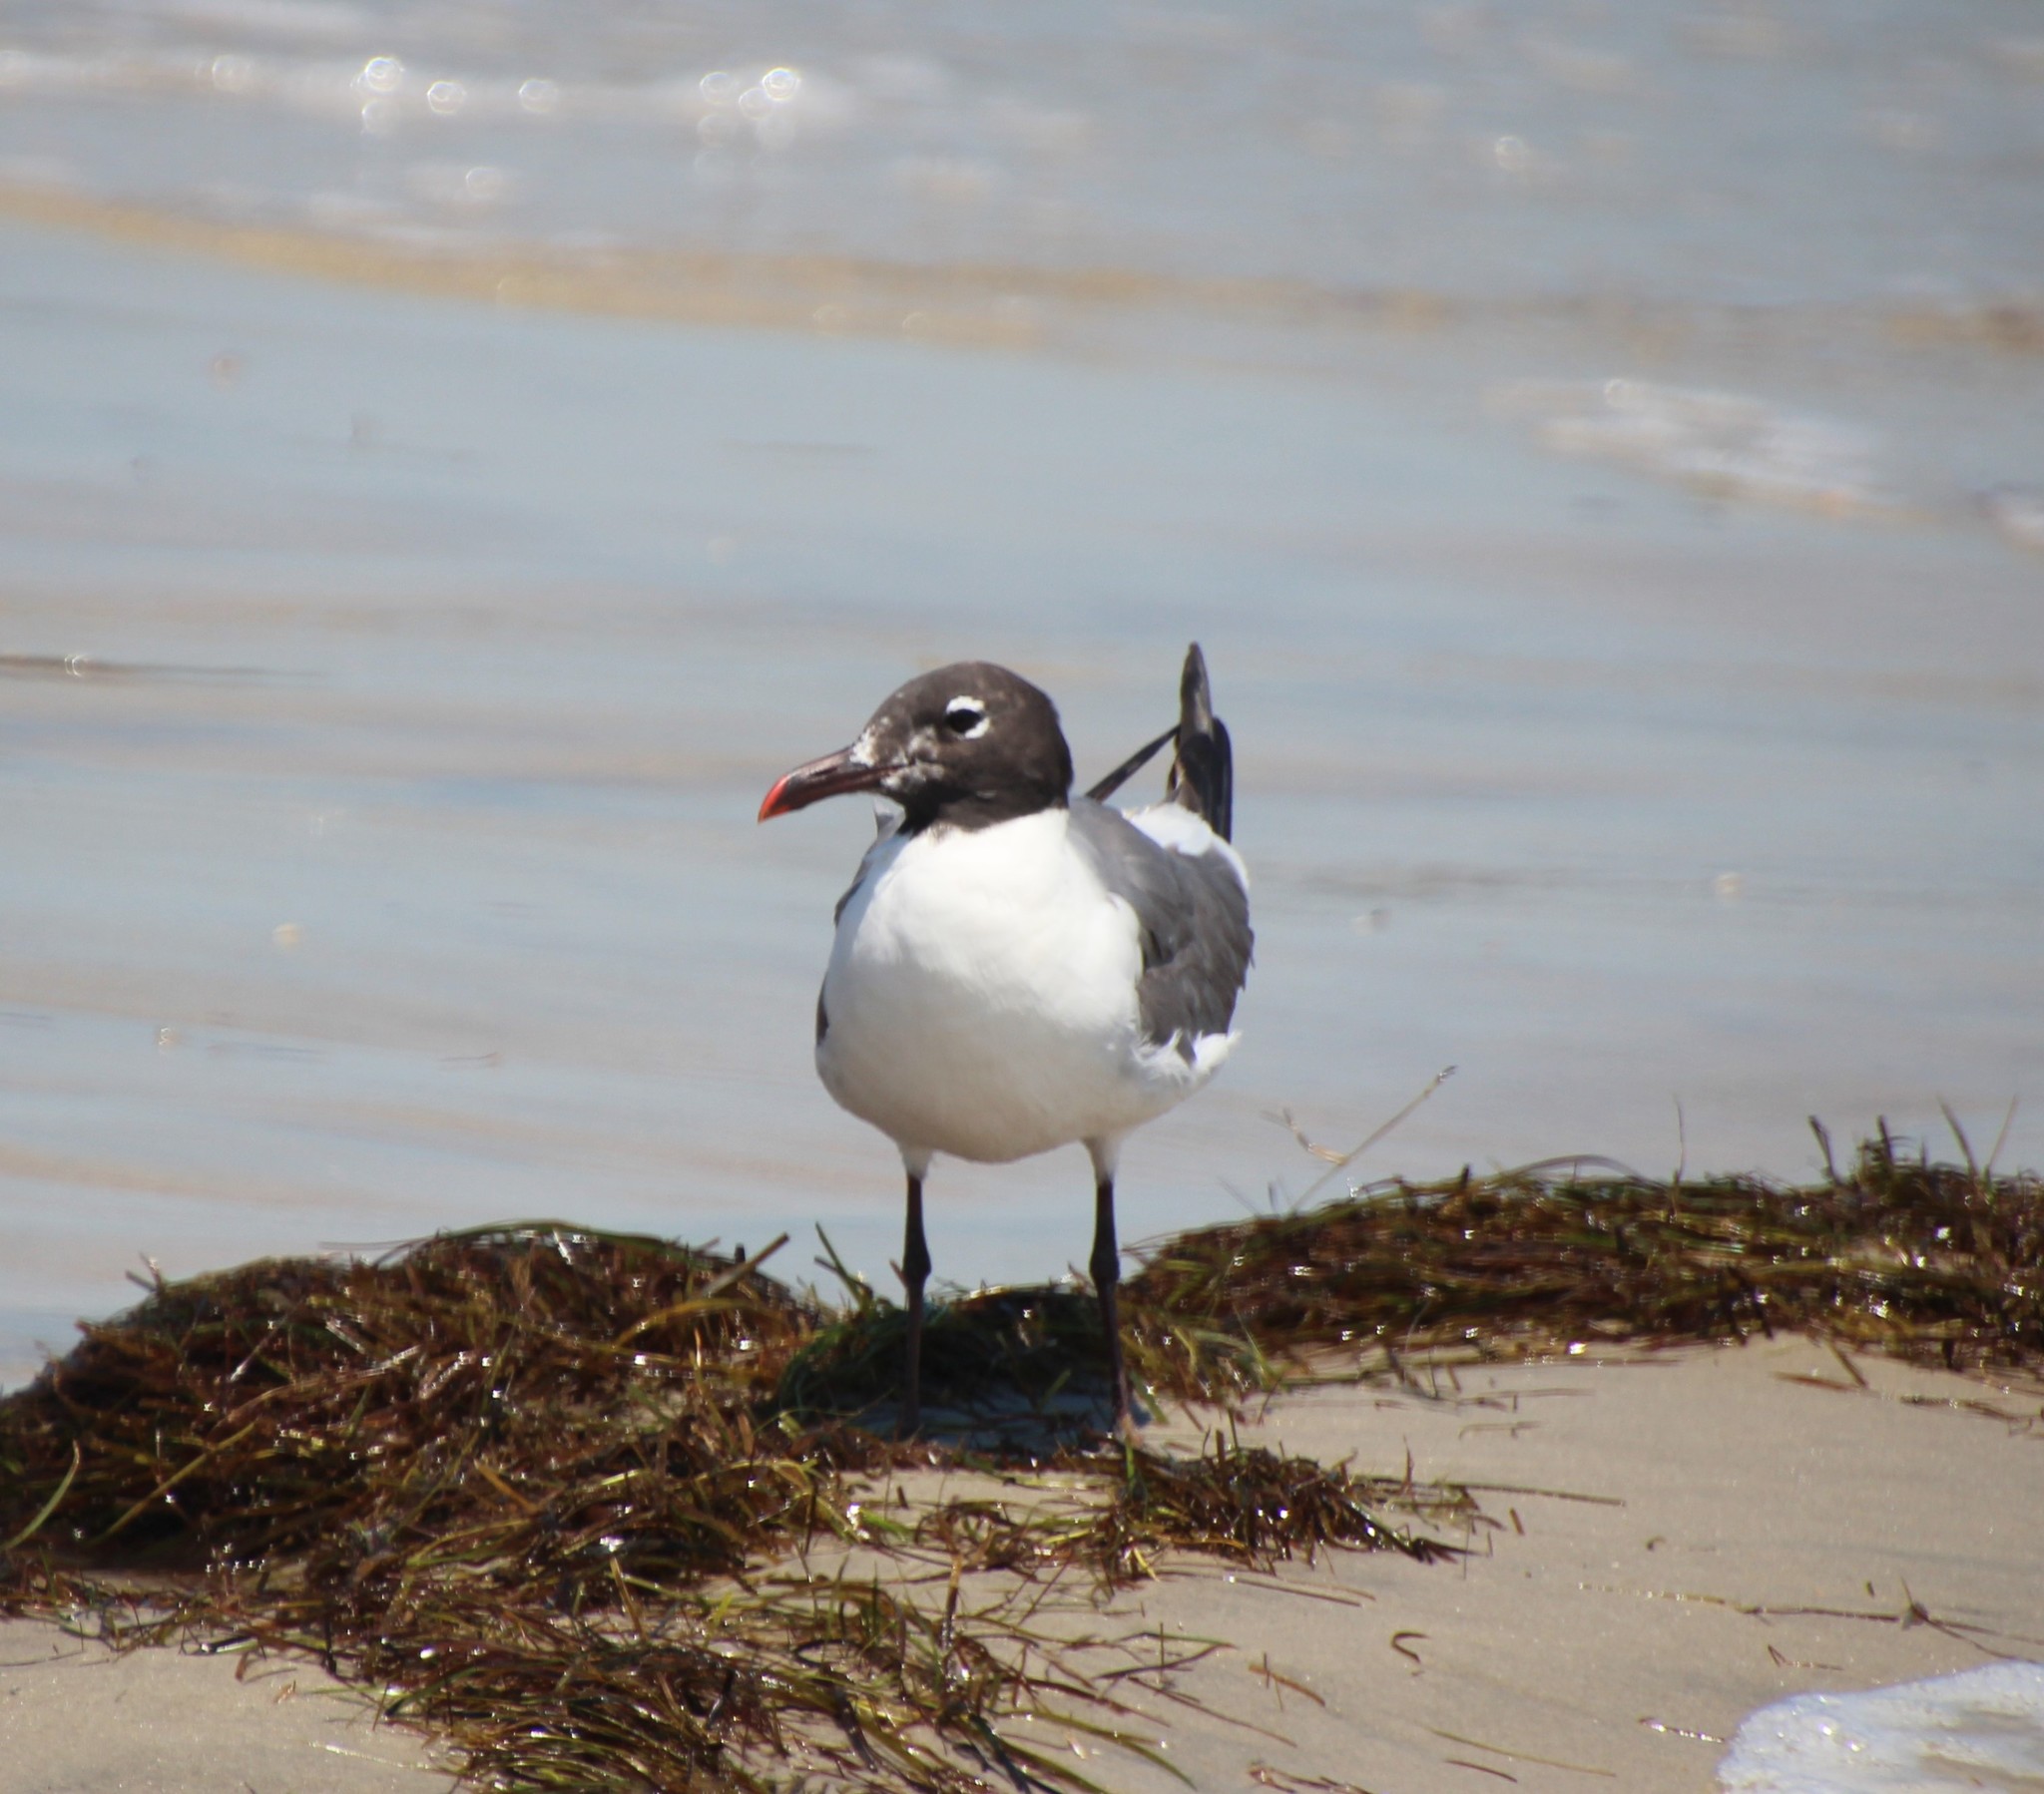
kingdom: Animalia
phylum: Chordata
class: Aves
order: Charadriiformes
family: Laridae
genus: Leucophaeus
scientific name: Leucophaeus atricilla
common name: Laughing gull
